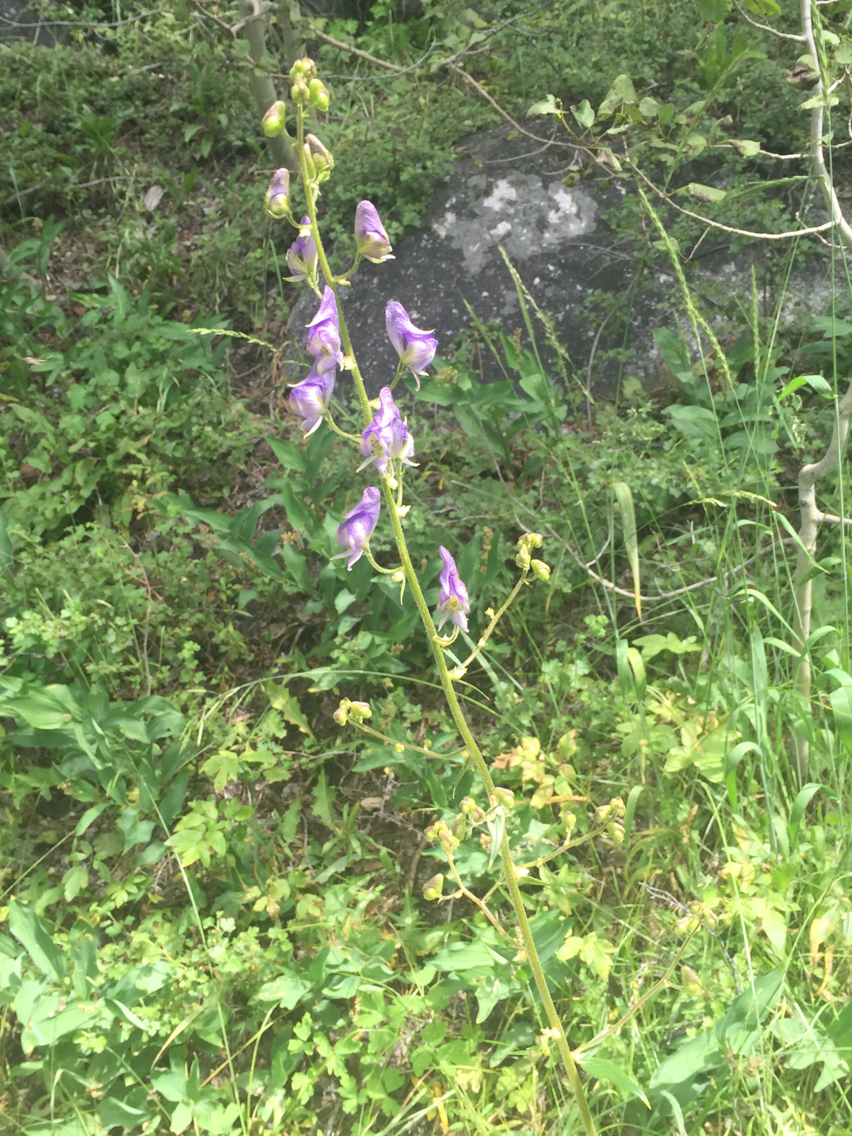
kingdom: Plantae
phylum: Tracheophyta
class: Magnoliopsida
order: Ranunculales
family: Ranunculaceae
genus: Aconitum
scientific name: Aconitum columbianum
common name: Columbia aconite
